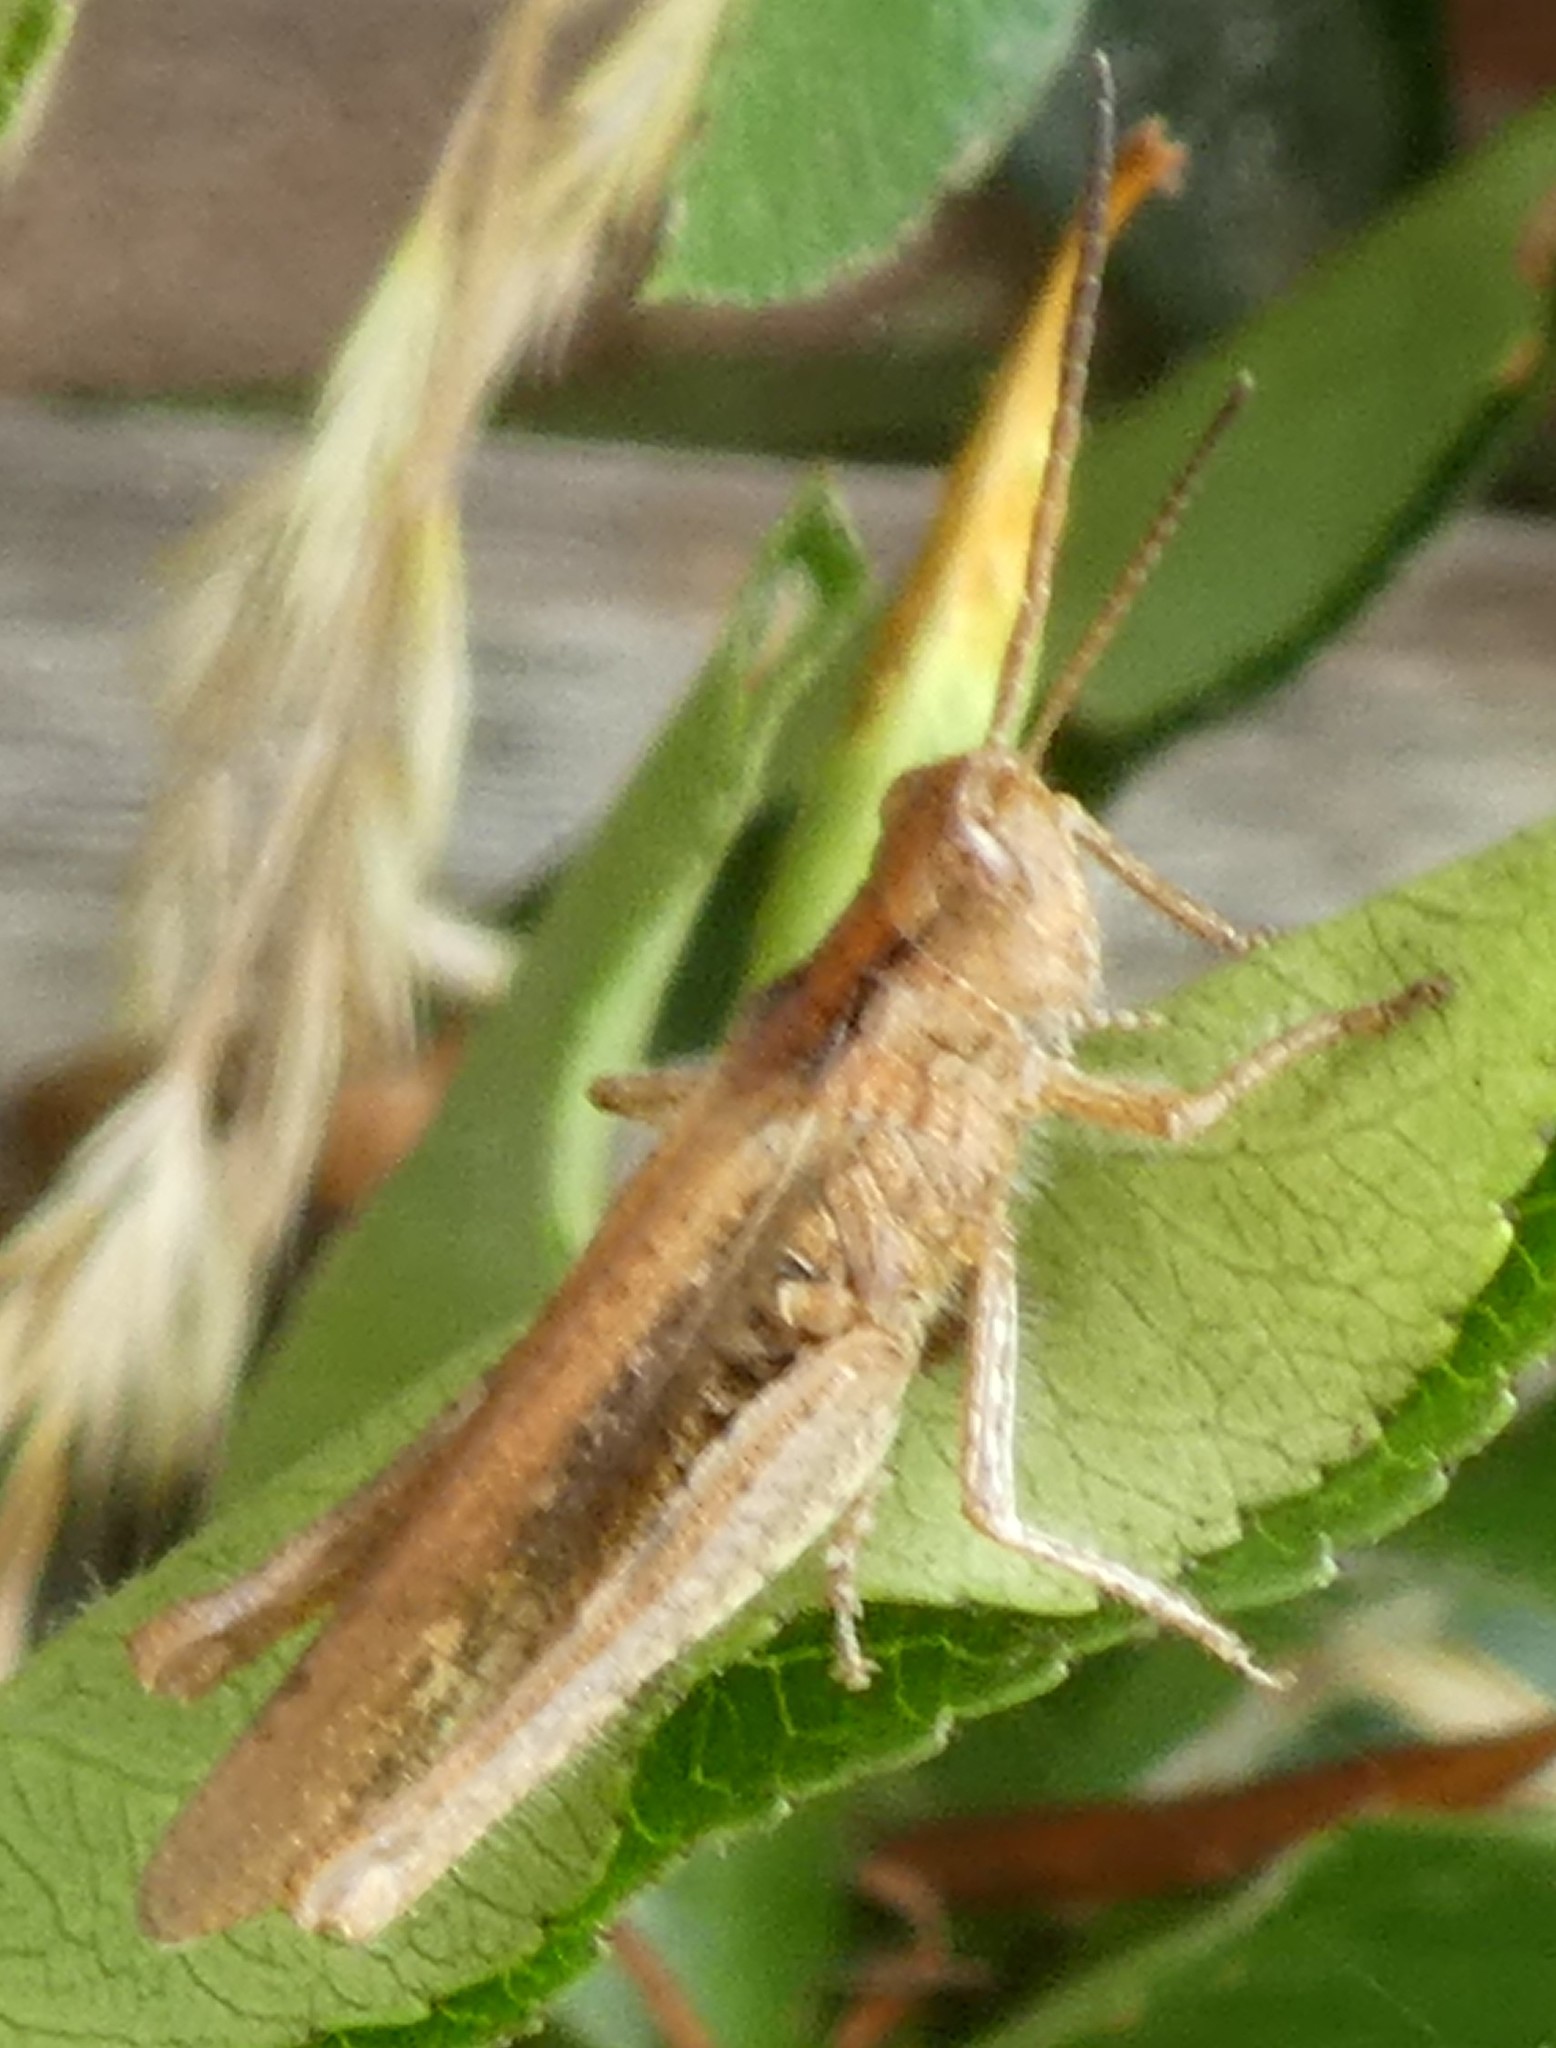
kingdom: Animalia
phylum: Arthropoda
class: Insecta
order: Orthoptera
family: Acrididae
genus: Chorthippus
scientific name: Chorthippus brunneus
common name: Field grasshopper
